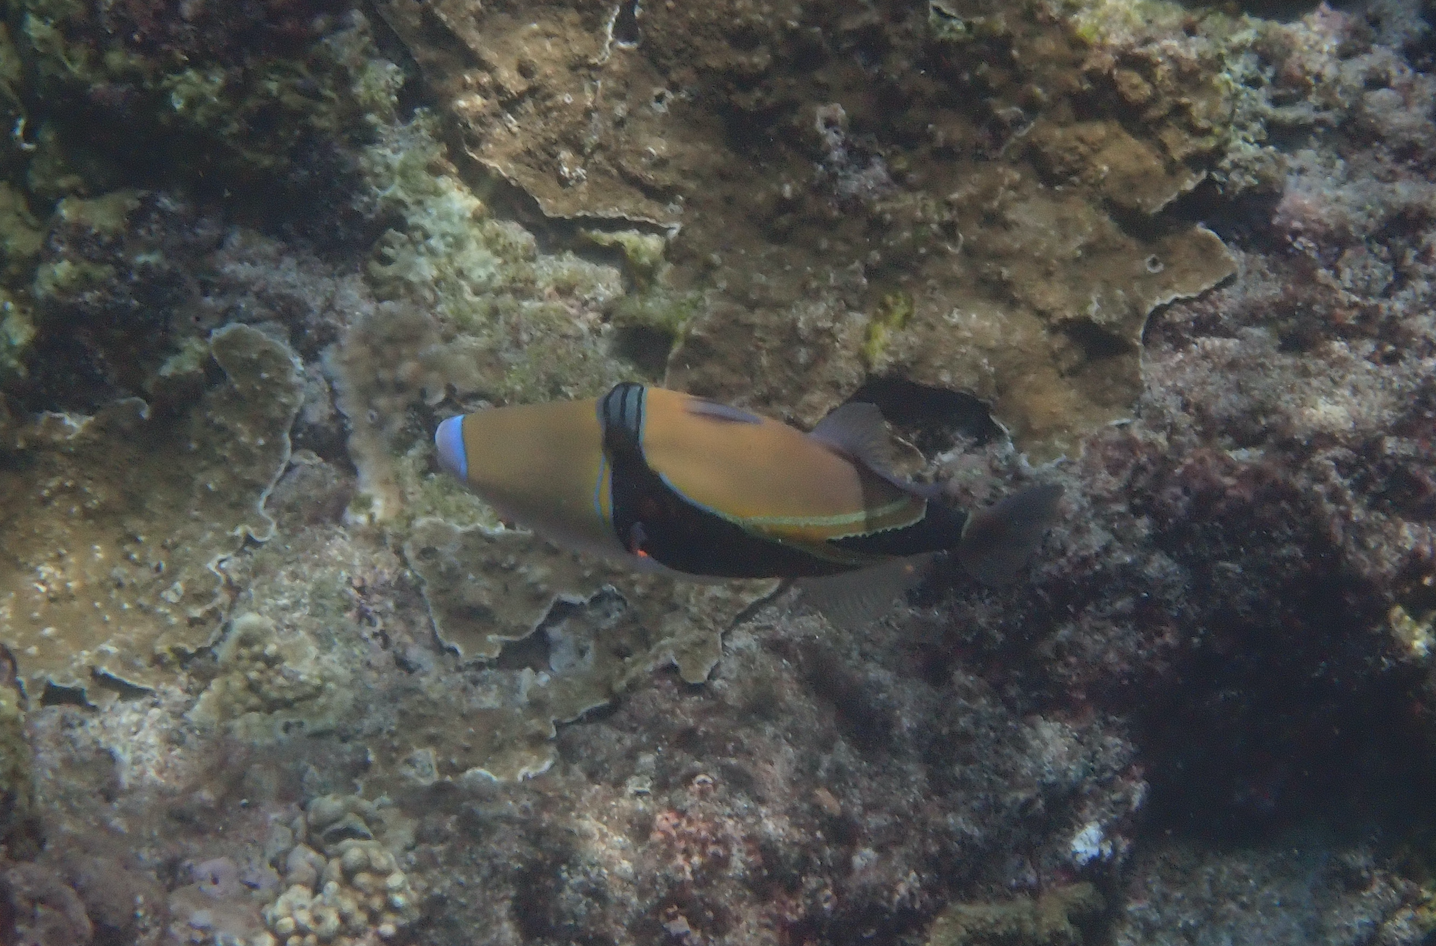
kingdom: Animalia
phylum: Chordata
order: Tetraodontiformes
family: Balistidae
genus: Rhinecanthus
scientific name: Rhinecanthus rectangulus
